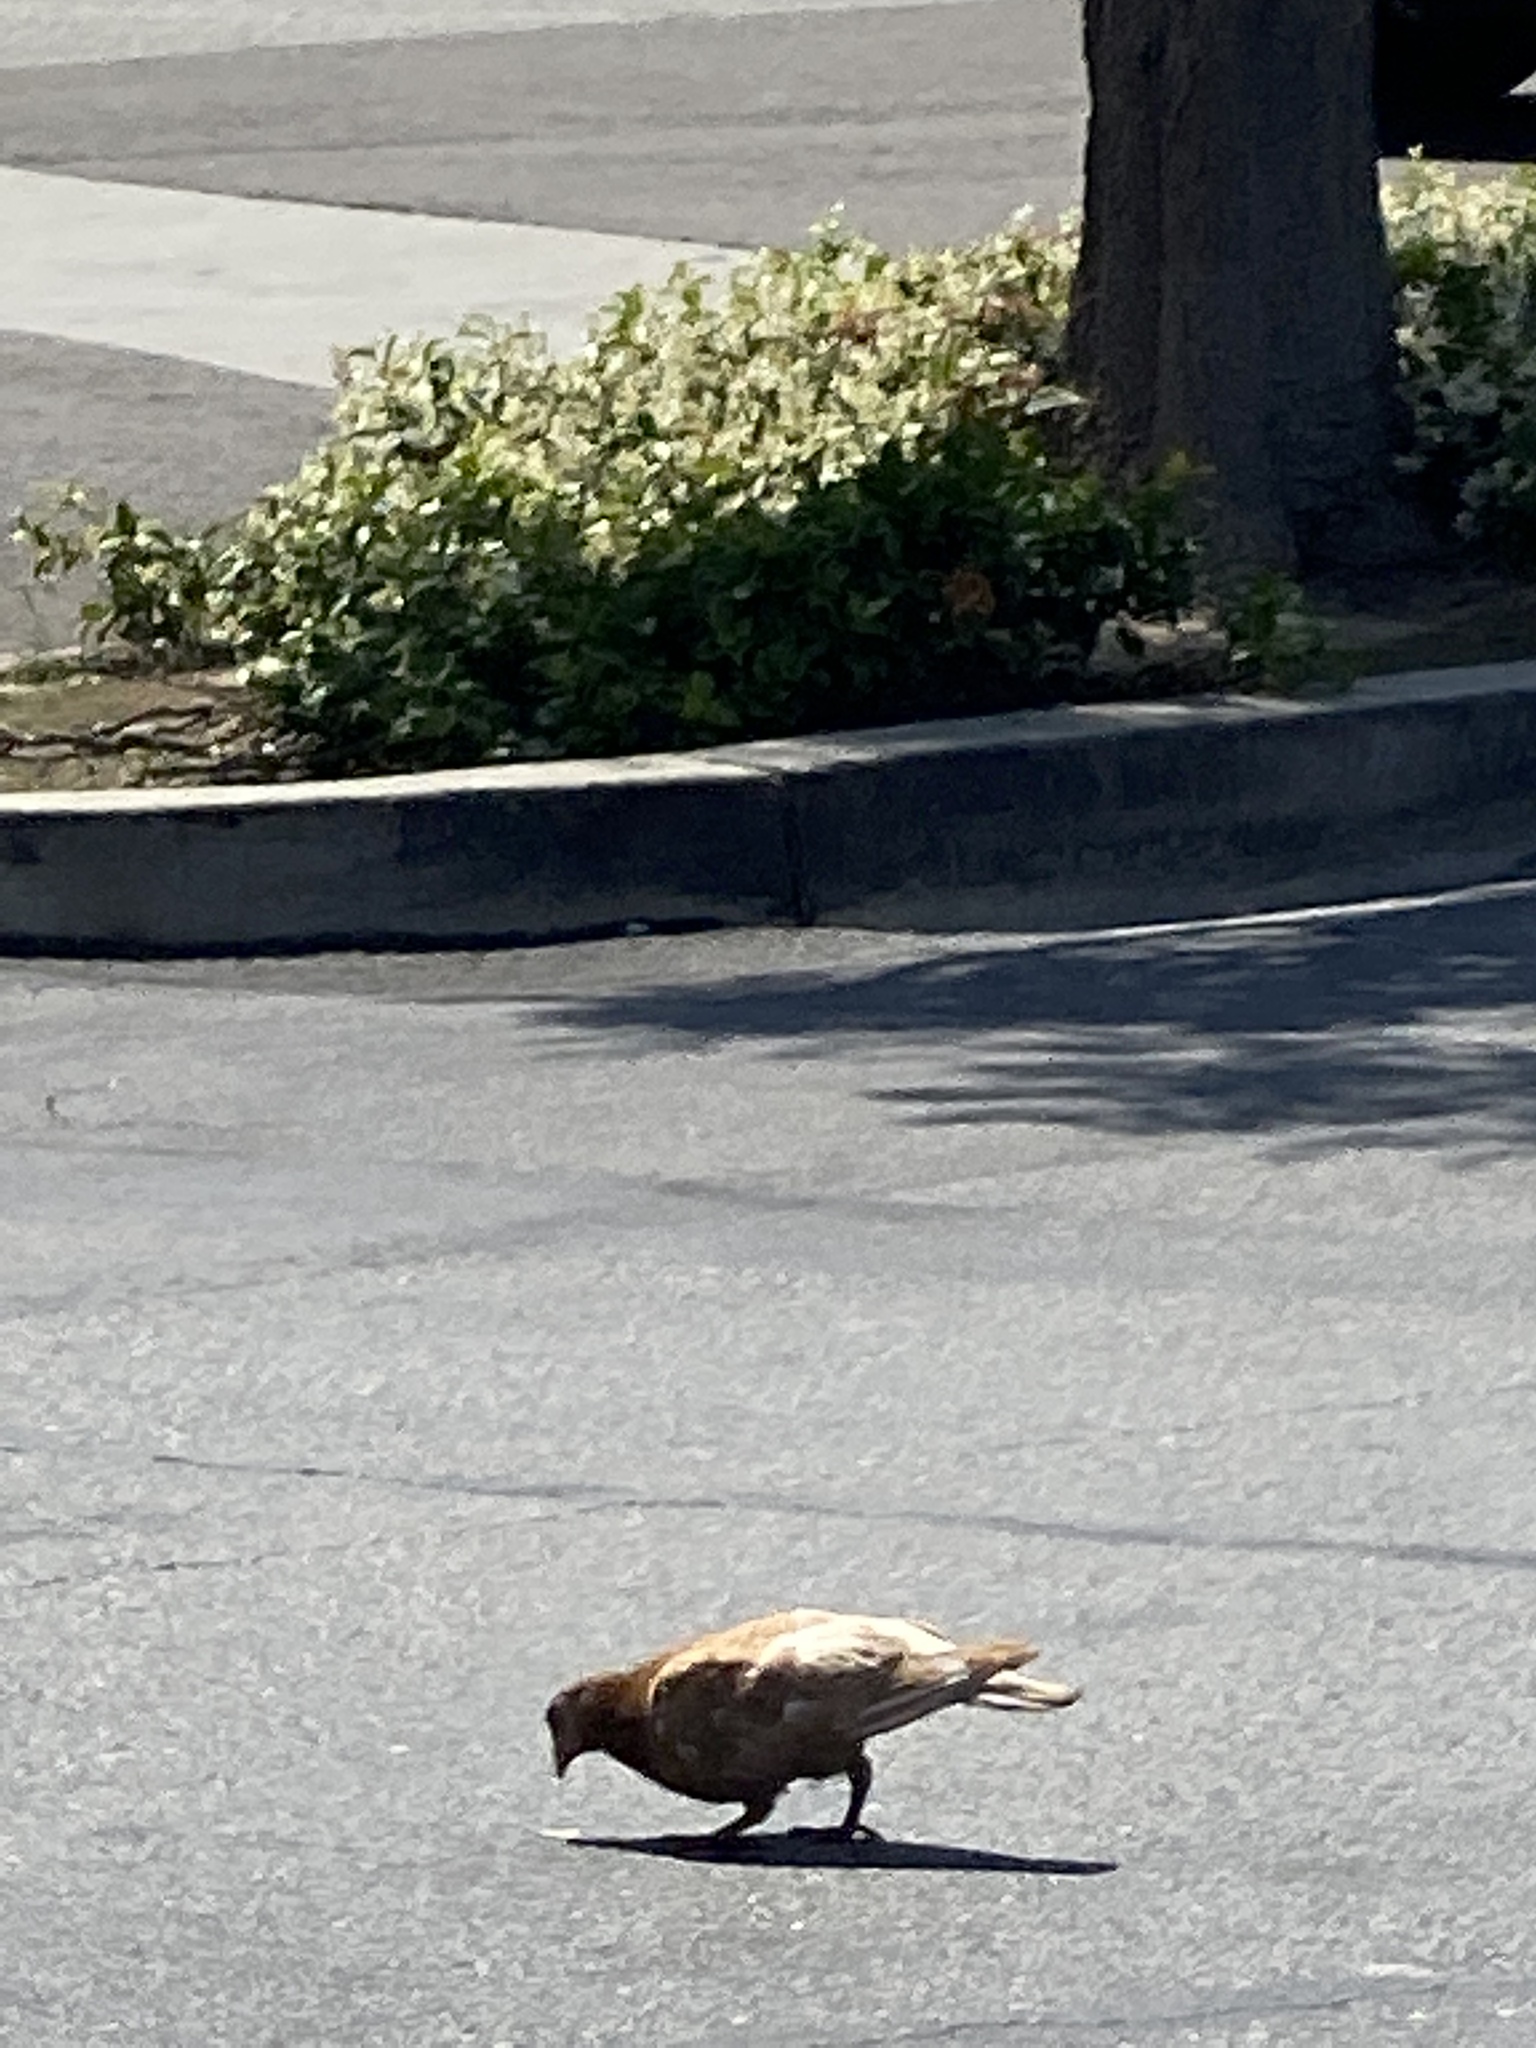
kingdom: Animalia
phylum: Chordata
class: Aves
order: Columbiformes
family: Columbidae
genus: Columba
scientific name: Columba livia
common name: Rock pigeon
